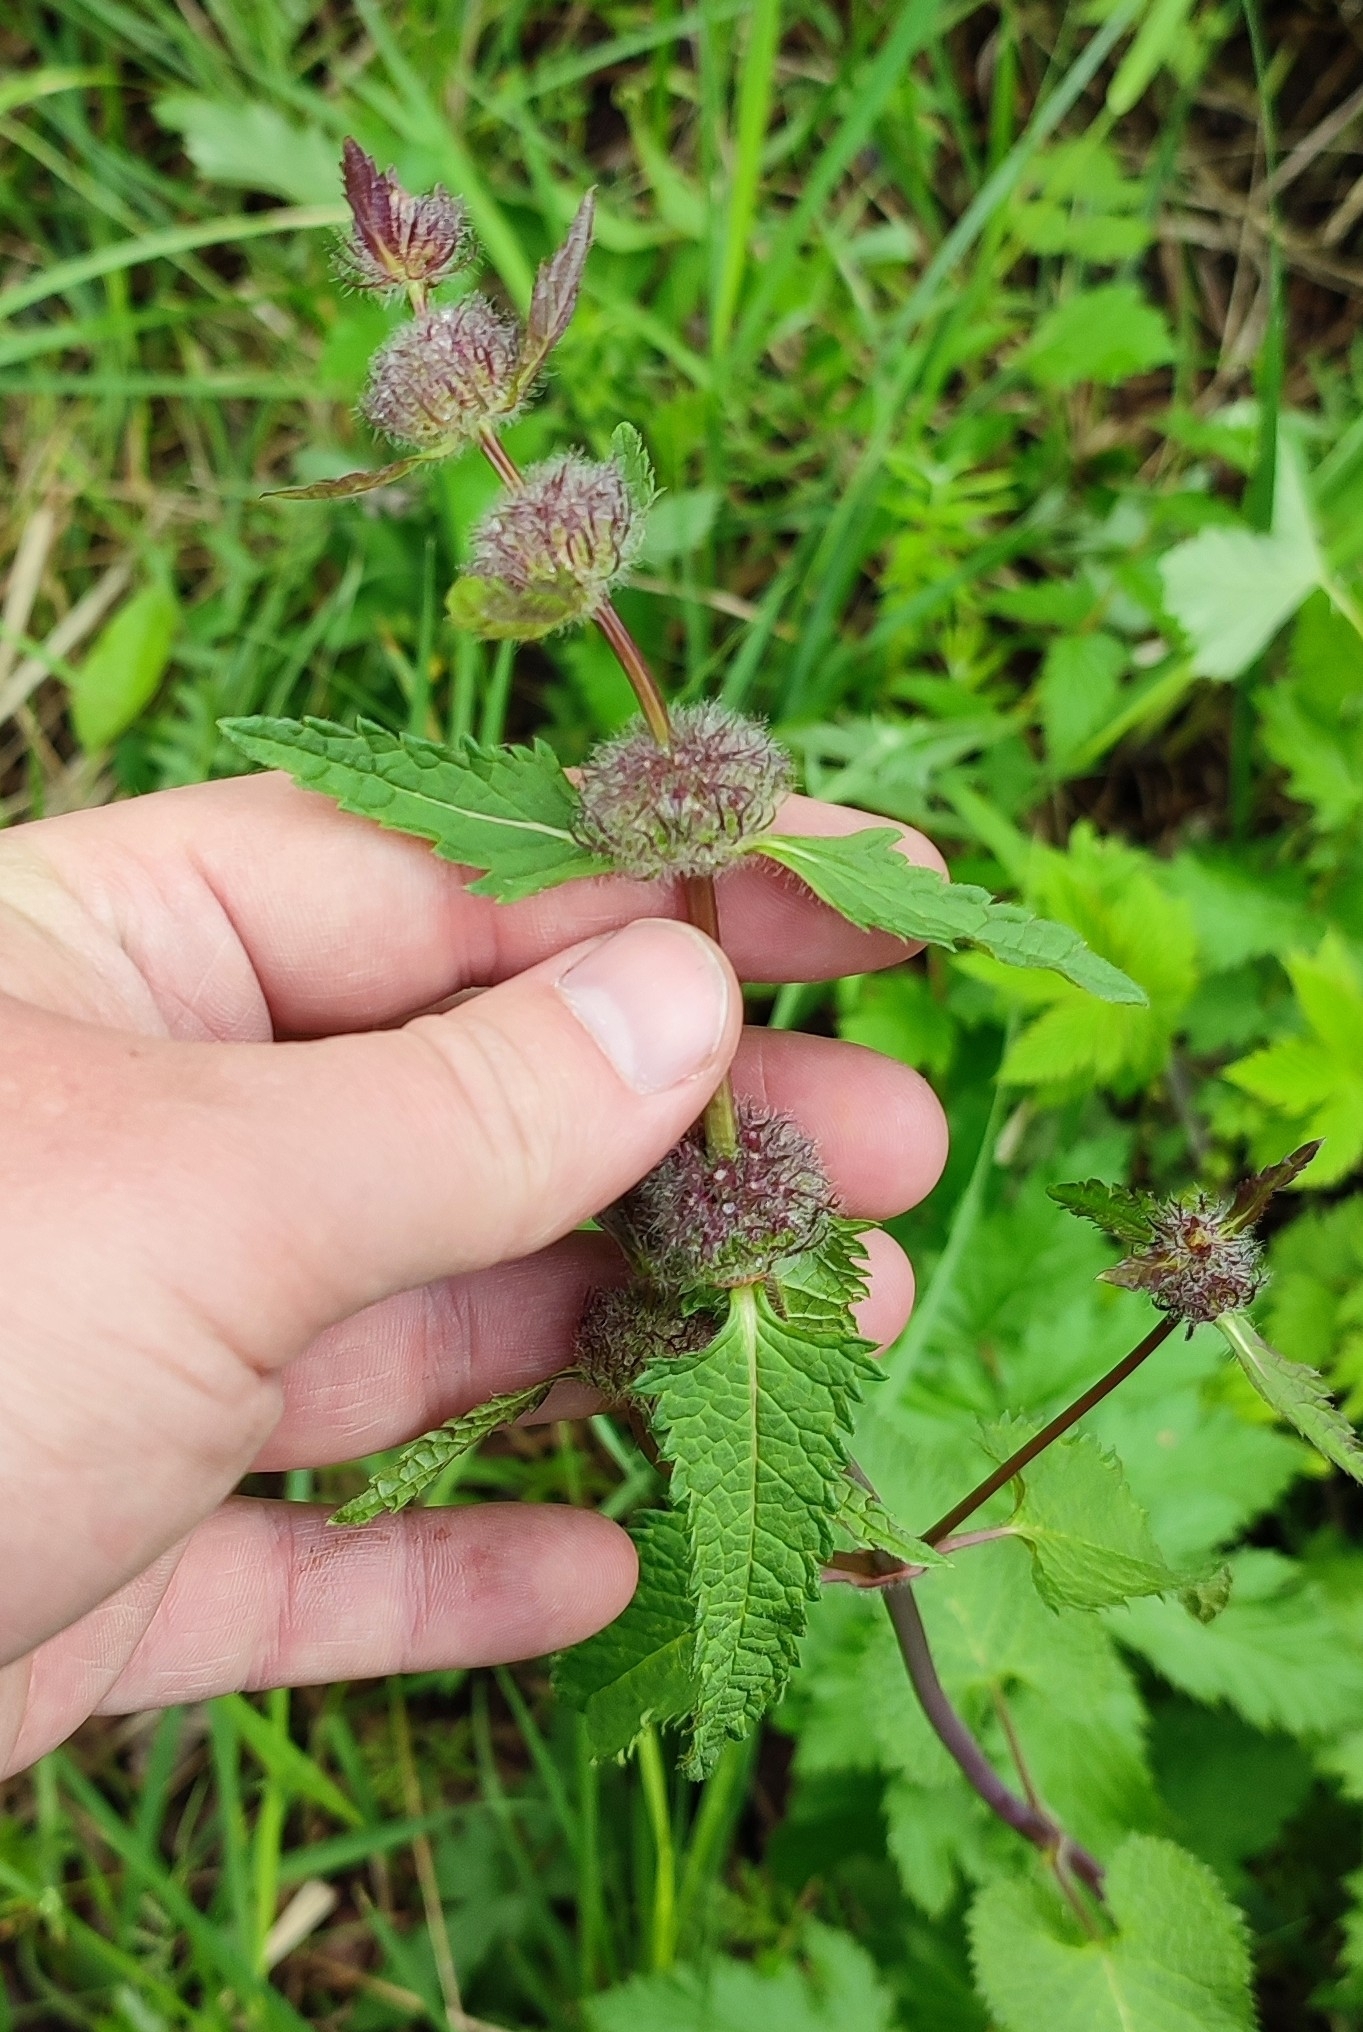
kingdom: Plantae
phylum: Tracheophyta
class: Magnoliopsida
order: Lamiales
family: Lamiaceae
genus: Phlomoides
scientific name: Phlomoides tuberosa
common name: Tuberous jerusalem sage
